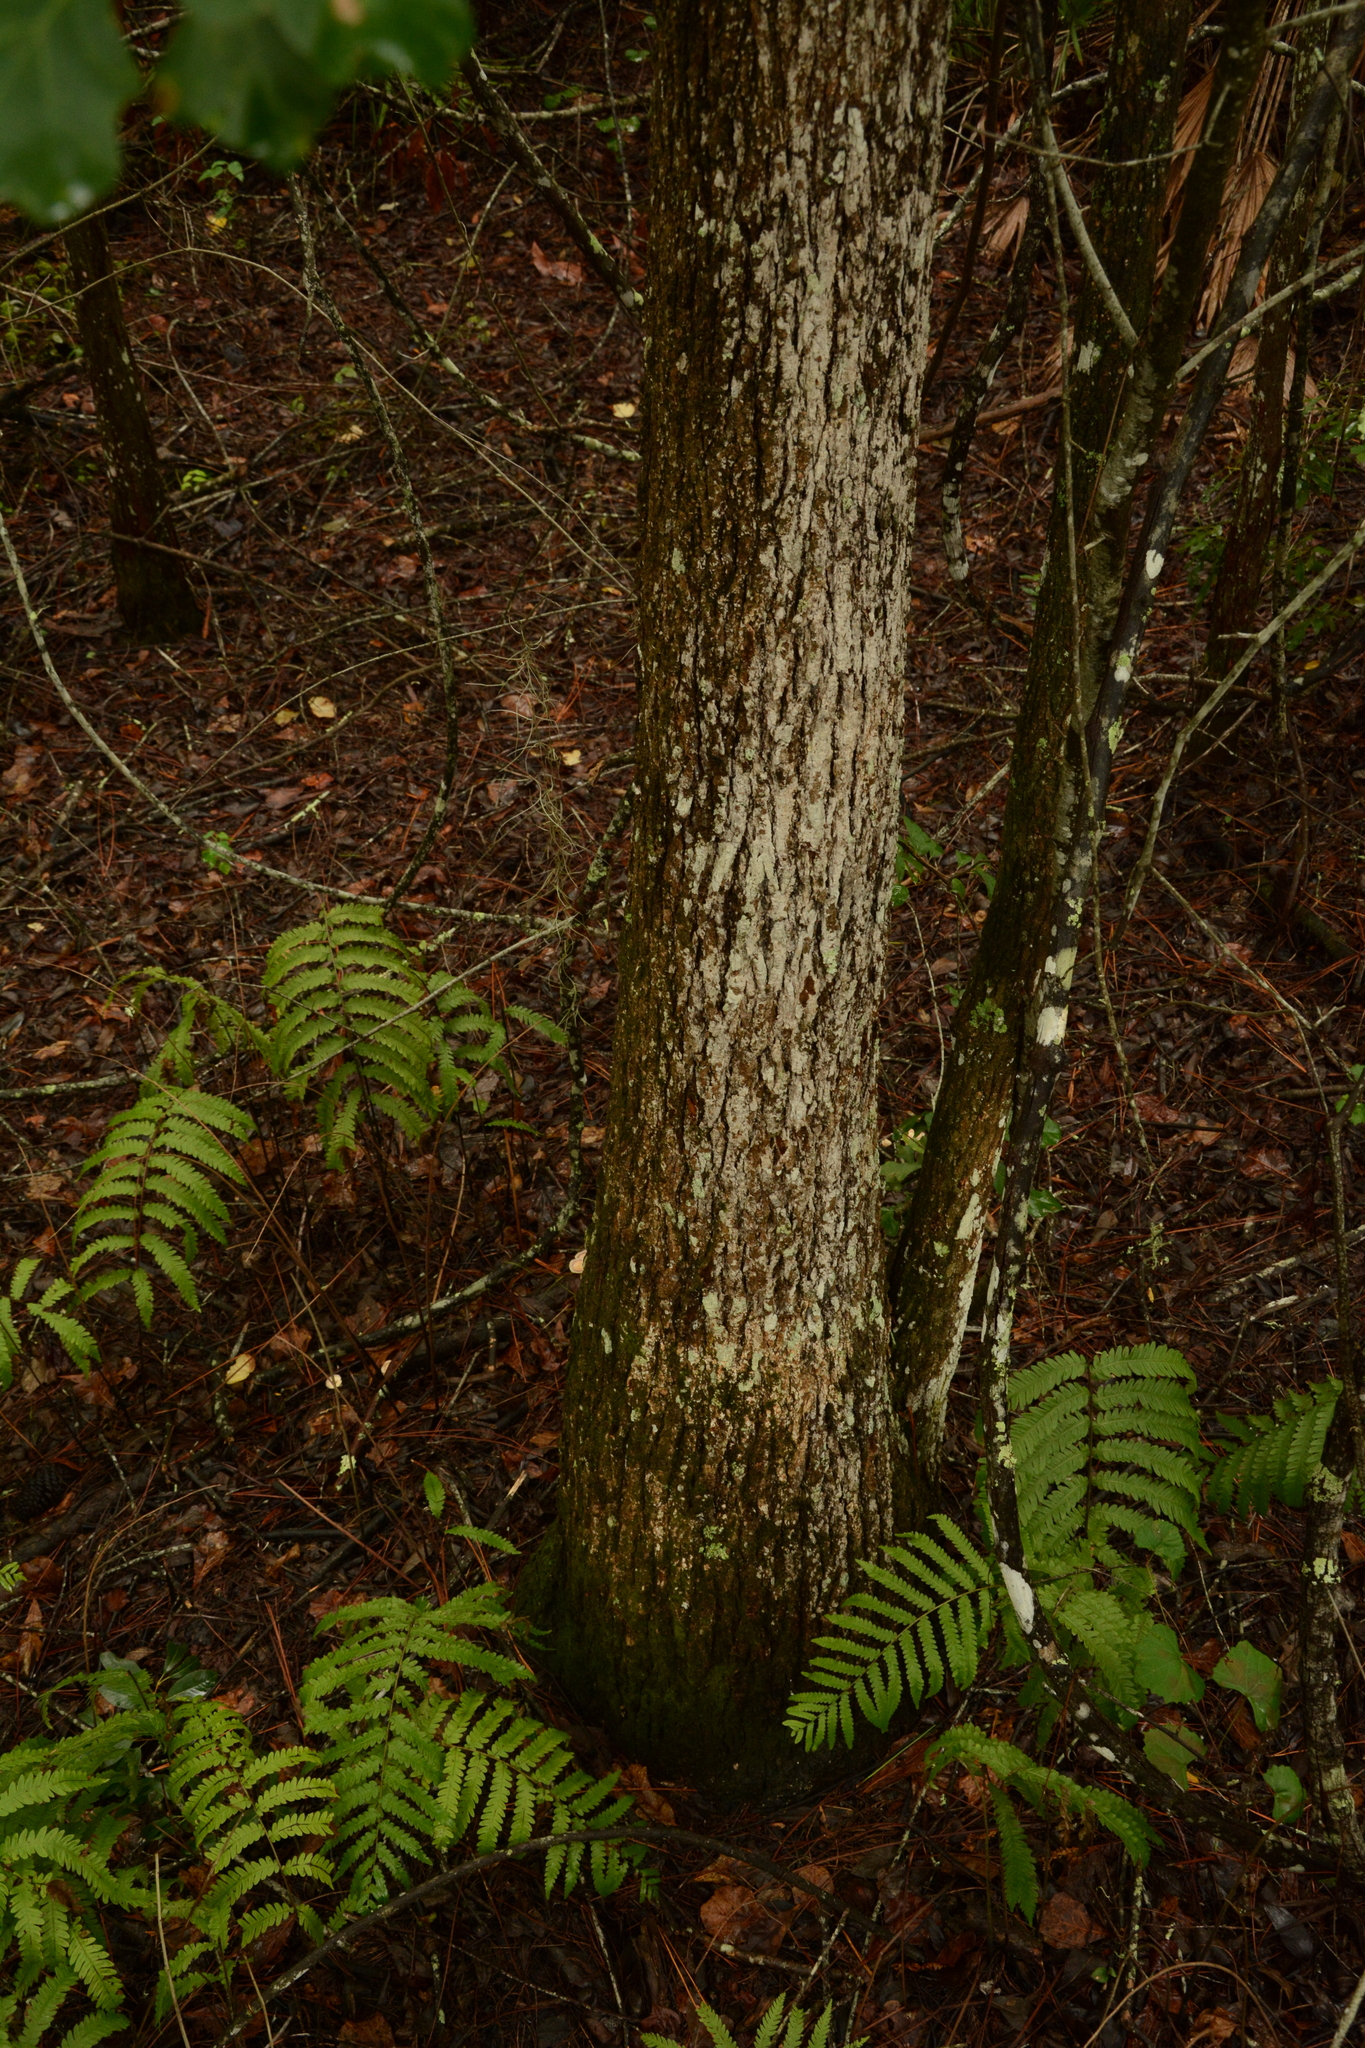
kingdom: Plantae
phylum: Tracheophyta
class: Magnoliopsida
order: Cornales
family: Nyssaceae
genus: Nyssa
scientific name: Nyssa biflora
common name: Swamp blackgum
